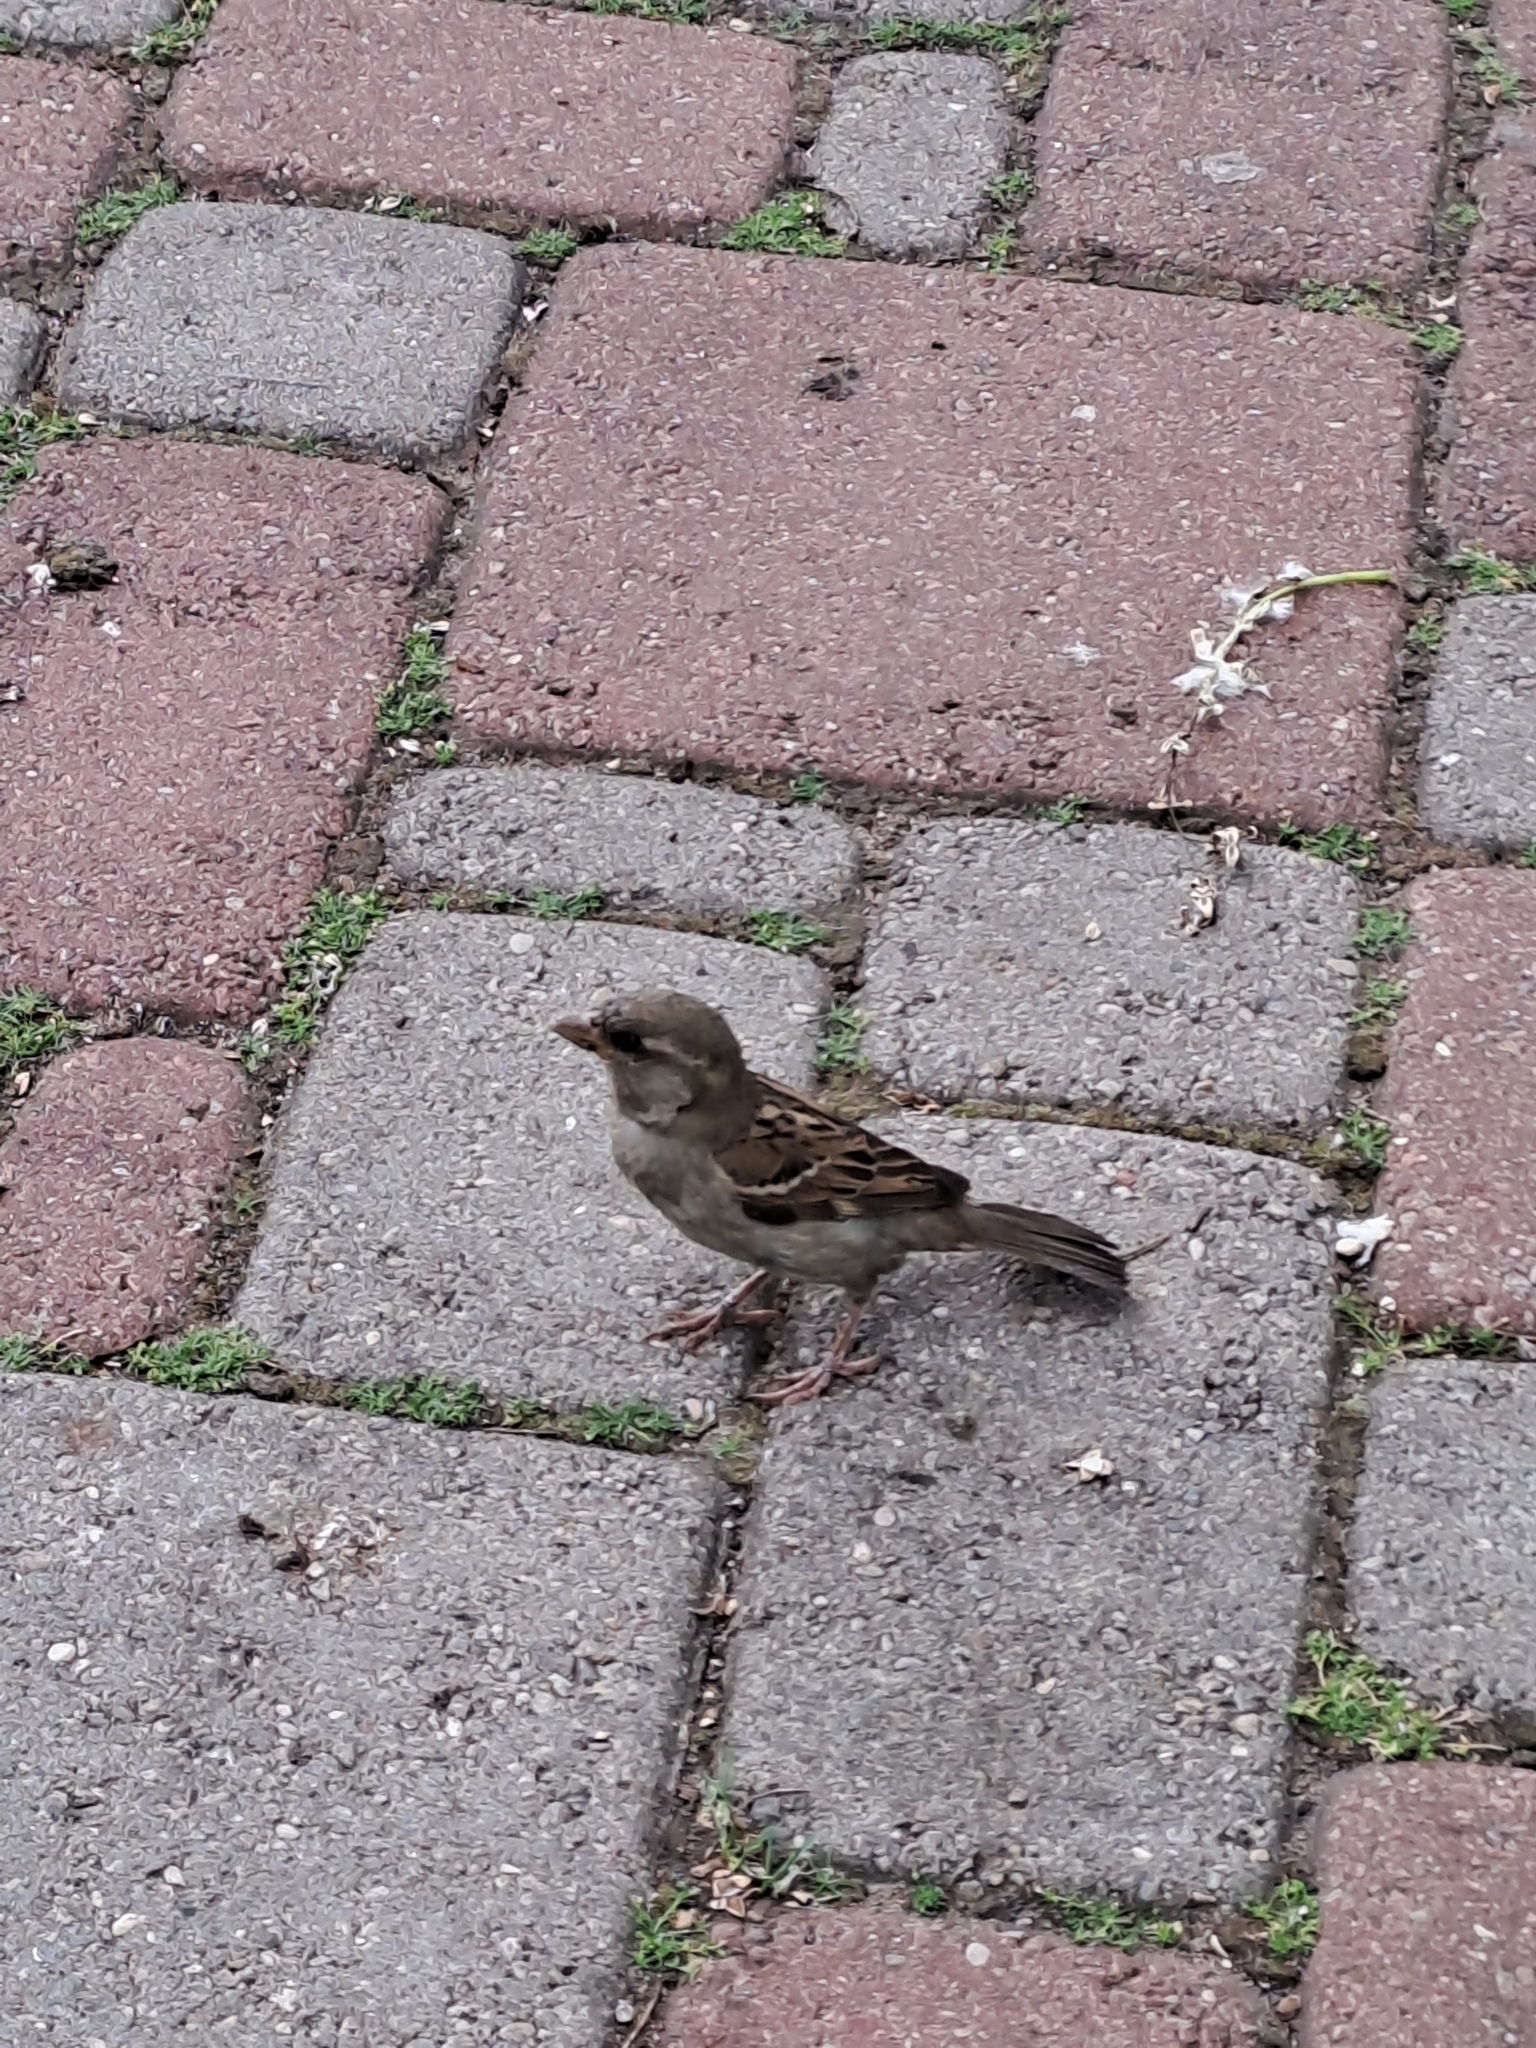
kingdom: Animalia
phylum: Chordata
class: Aves
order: Passeriformes
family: Passeridae
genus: Passer
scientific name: Passer domesticus
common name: House sparrow
